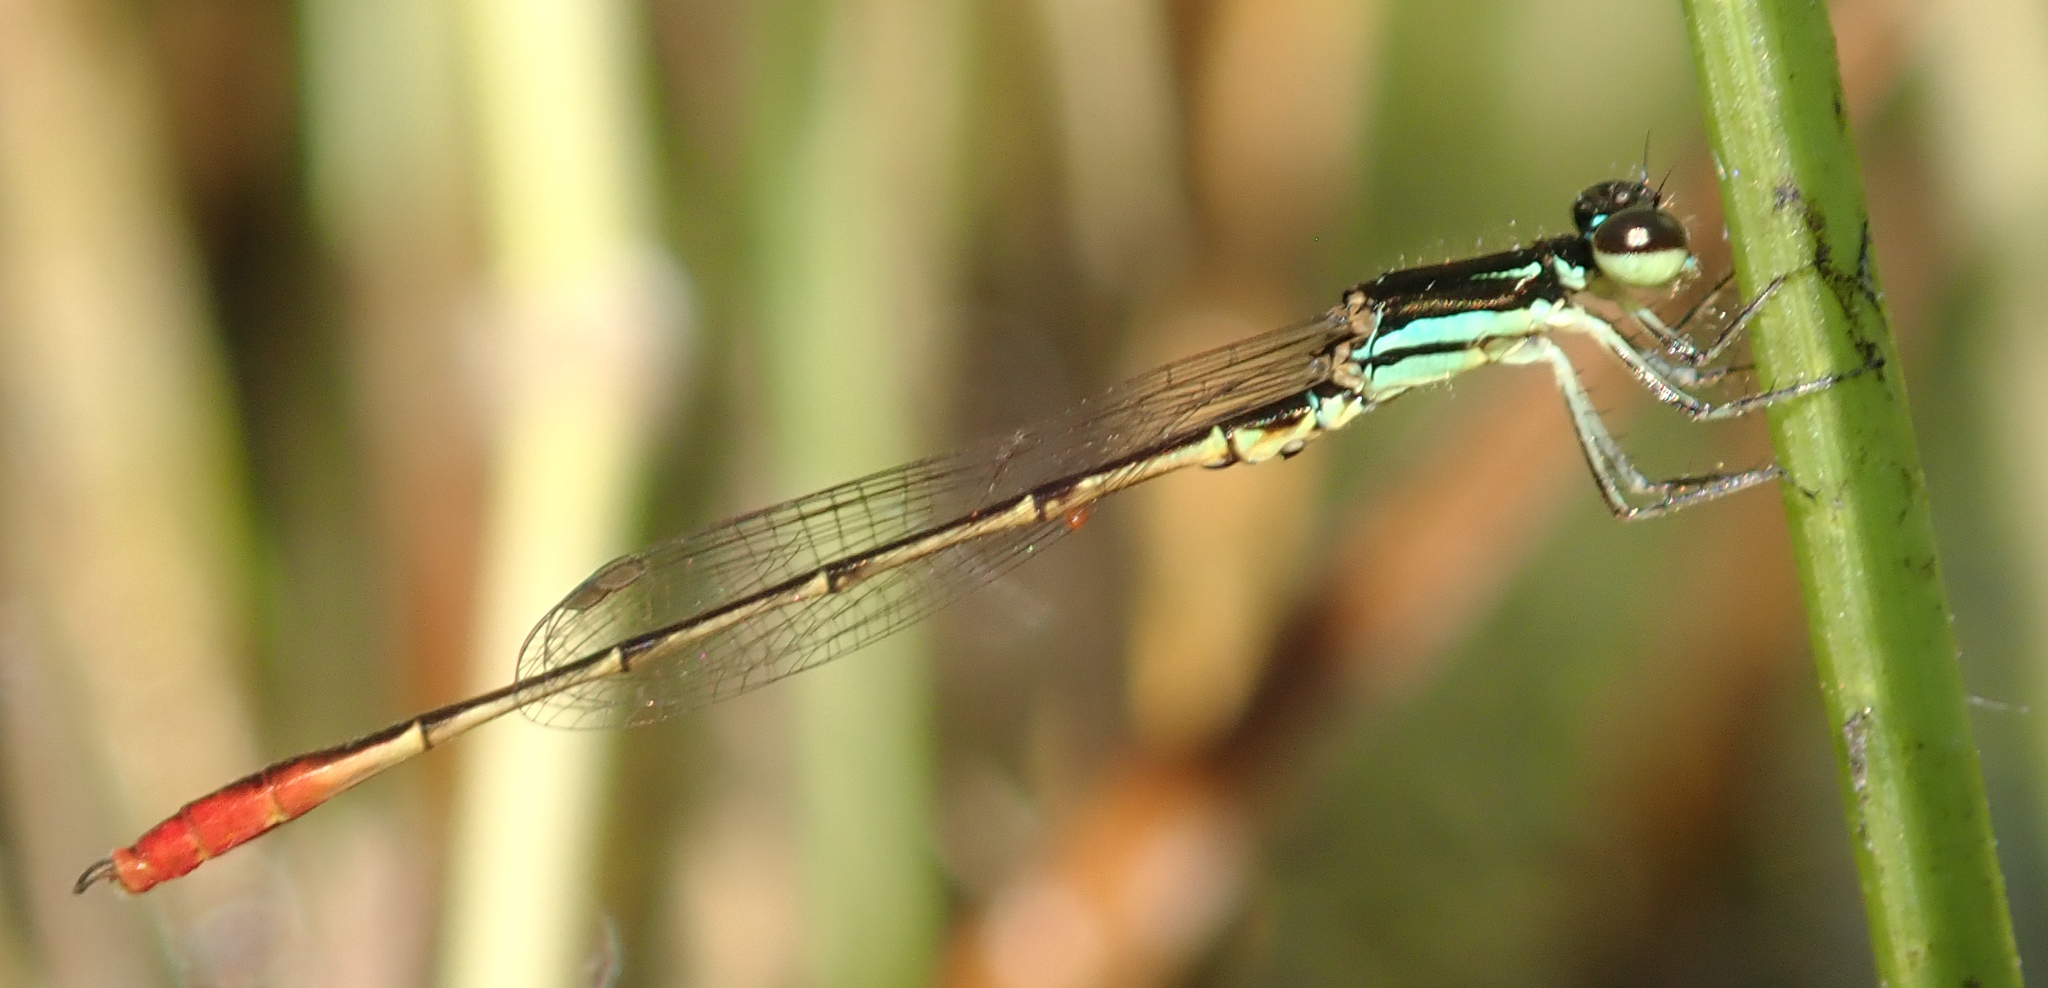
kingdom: Animalia
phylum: Arthropoda
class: Insecta
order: Odonata
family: Coenagrionidae
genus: Agriocnemis
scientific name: Agriocnemis victoria
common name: Lesser pincer-tailed wisp
